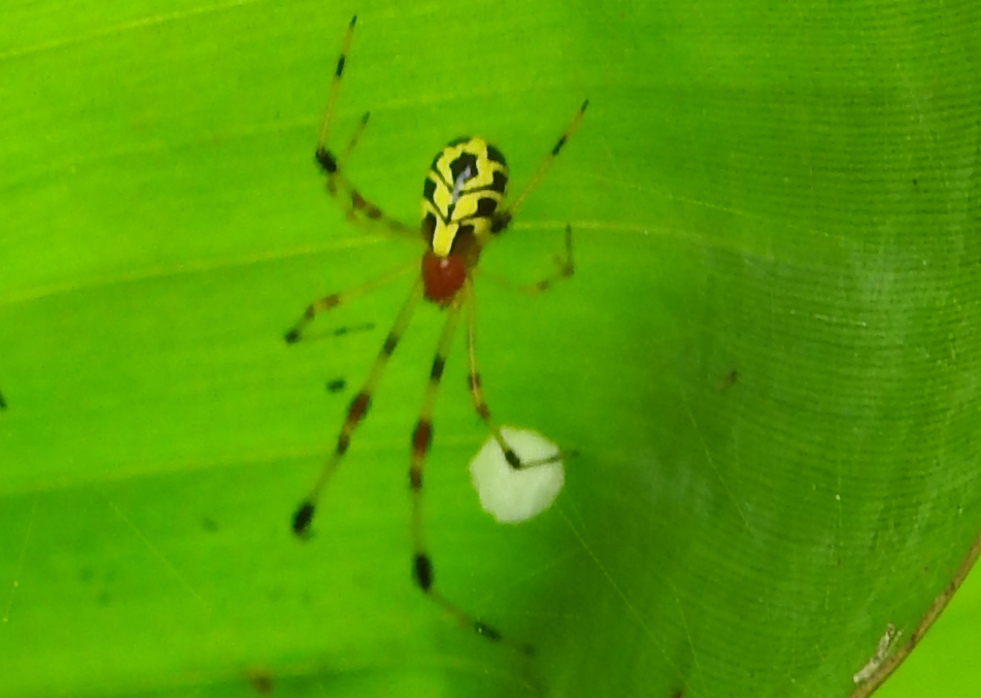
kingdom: Animalia
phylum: Arthropoda
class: Arachnida
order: Araneae
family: Theridiidae
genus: Chrysso
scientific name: Chrysso urbasae
